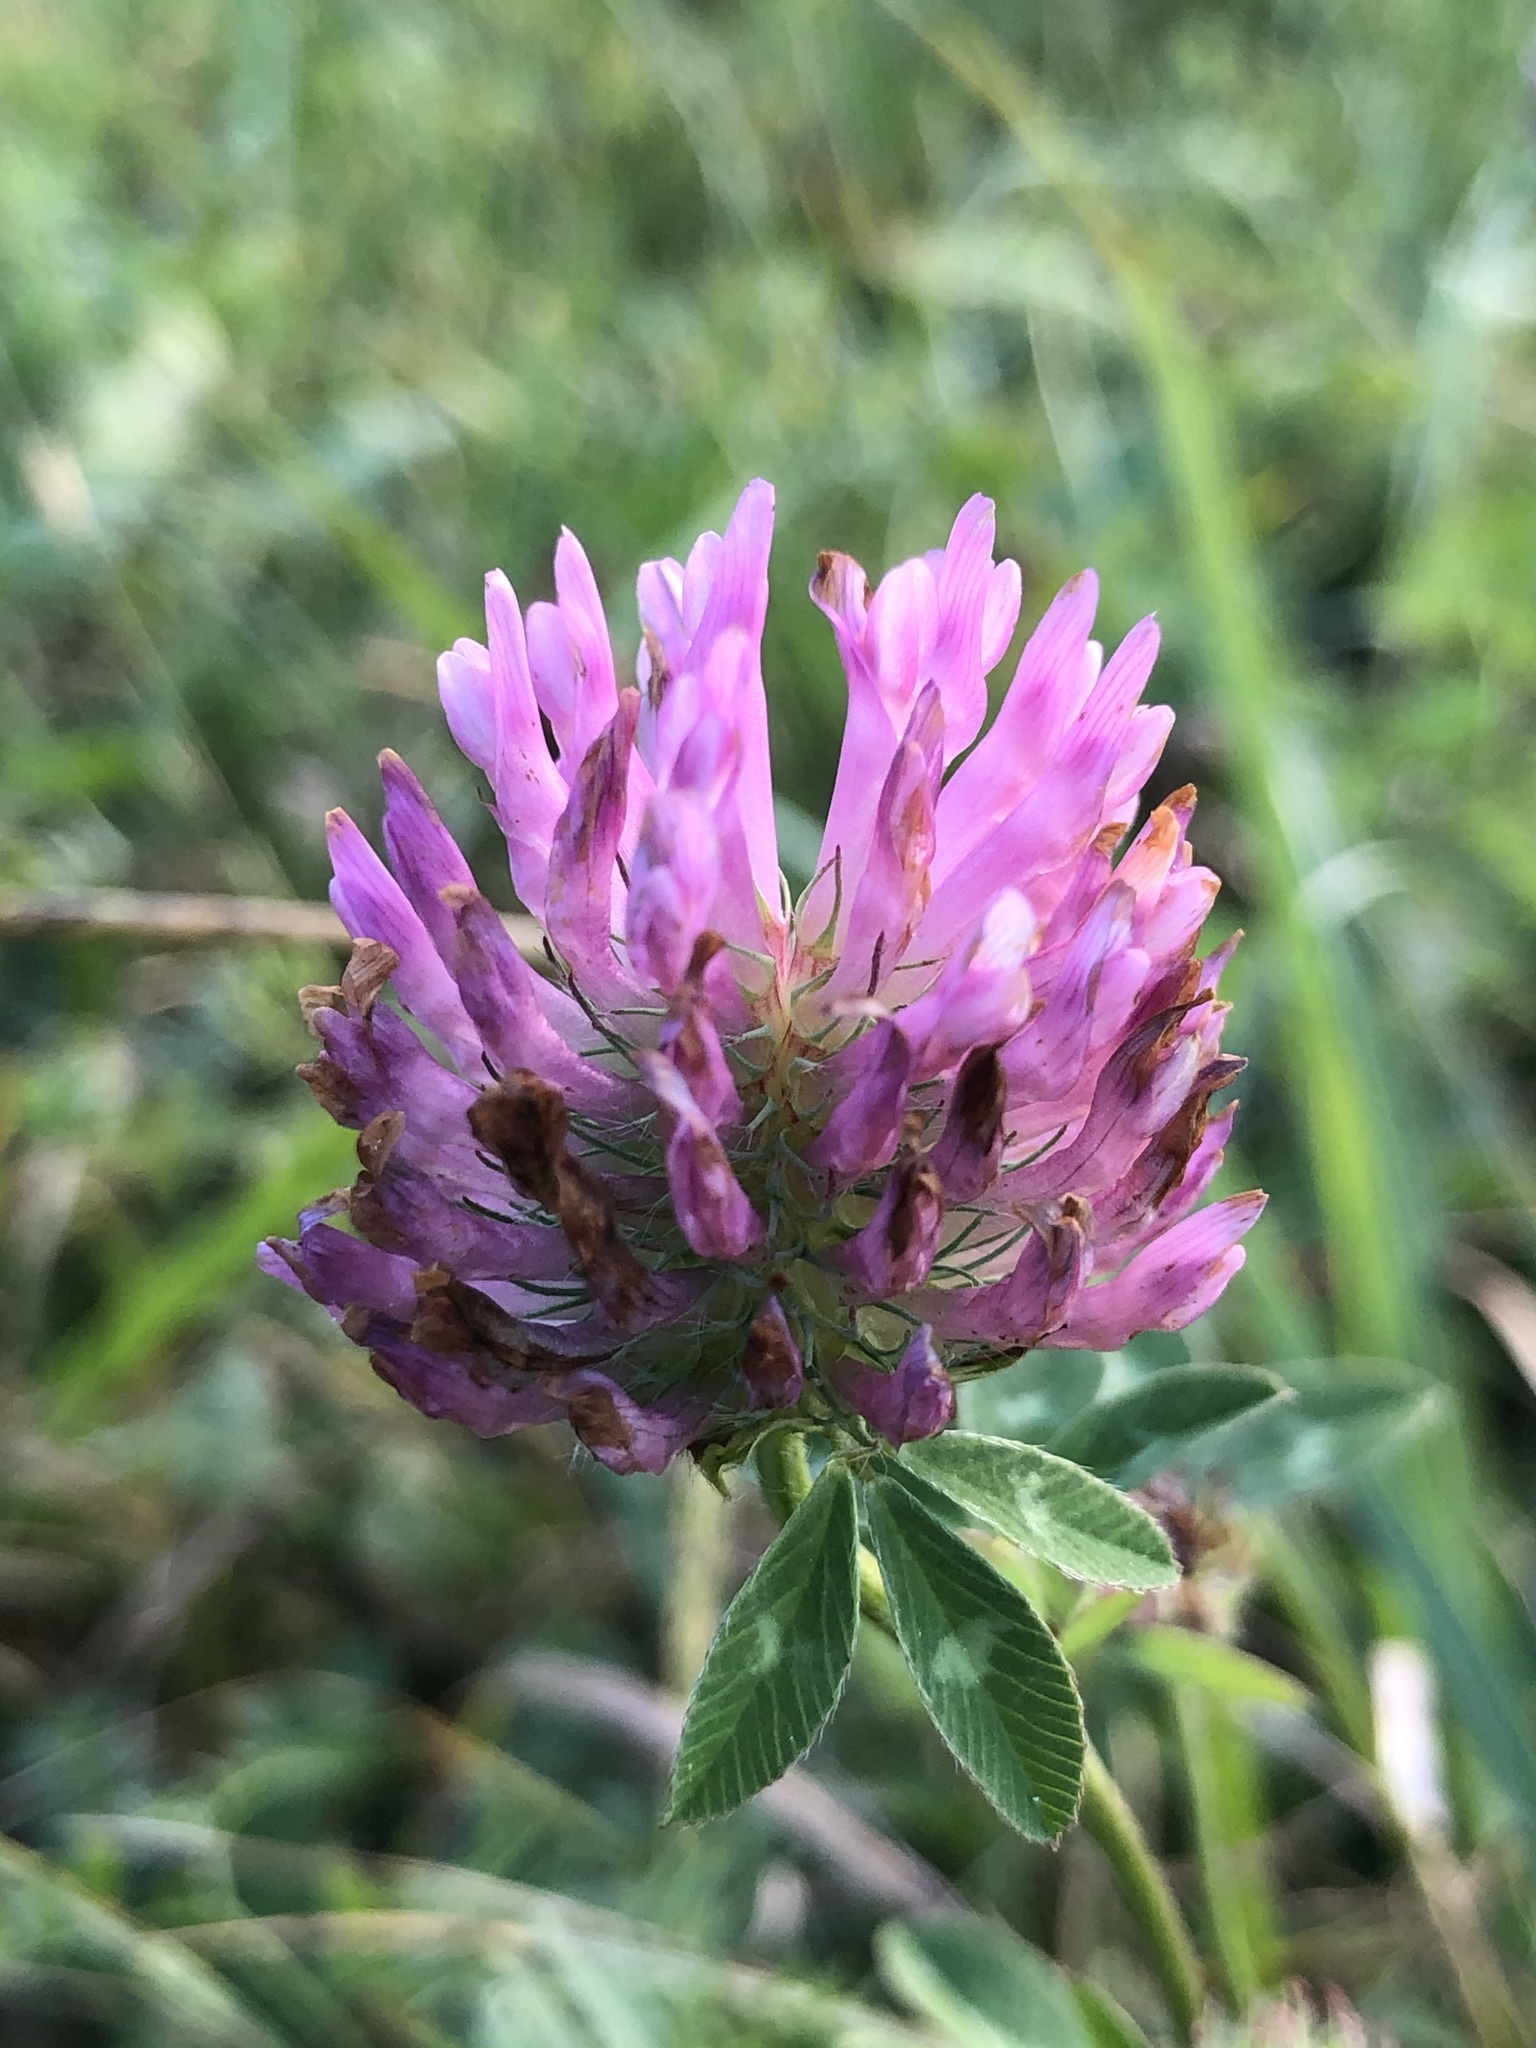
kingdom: Plantae
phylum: Tracheophyta
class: Magnoliopsida
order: Fabales
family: Fabaceae
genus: Trifolium
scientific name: Trifolium pratense
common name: Red clover
